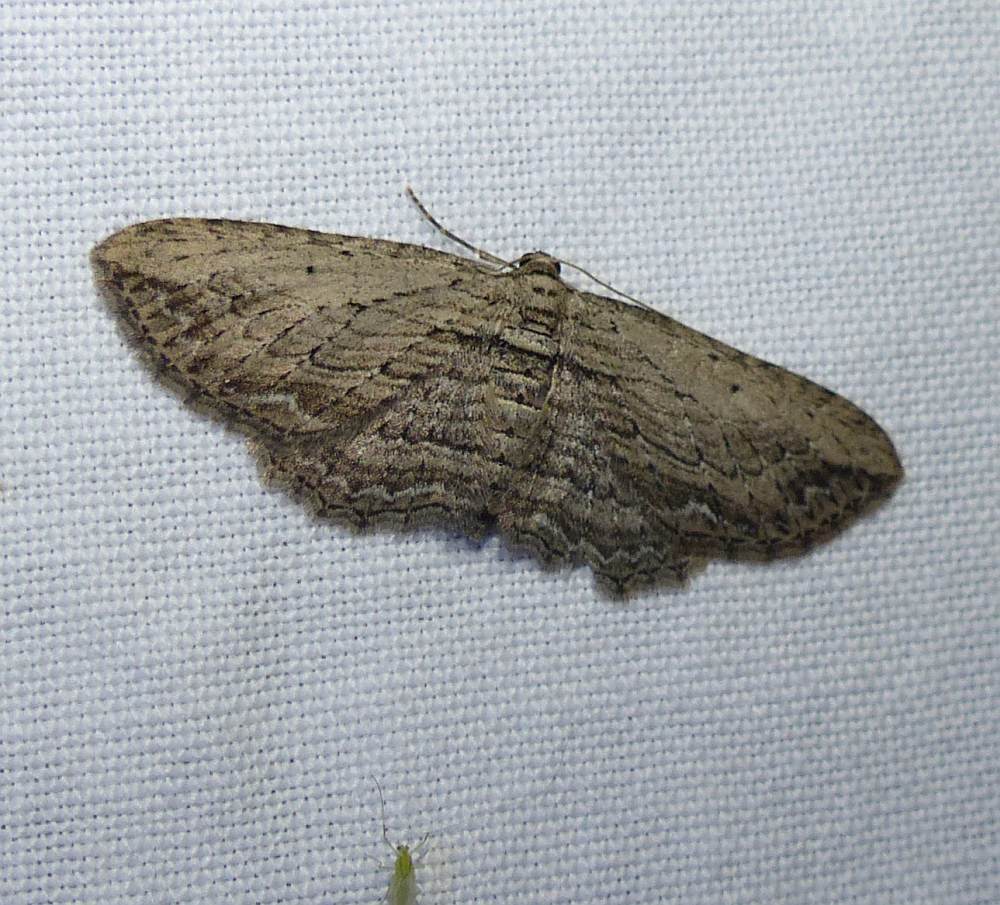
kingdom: Animalia
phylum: Arthropoda
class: Insecta
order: Lepidoptera
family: Geometridae
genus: Horisme
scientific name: Horisme intestinata
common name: Brown bark carpet
